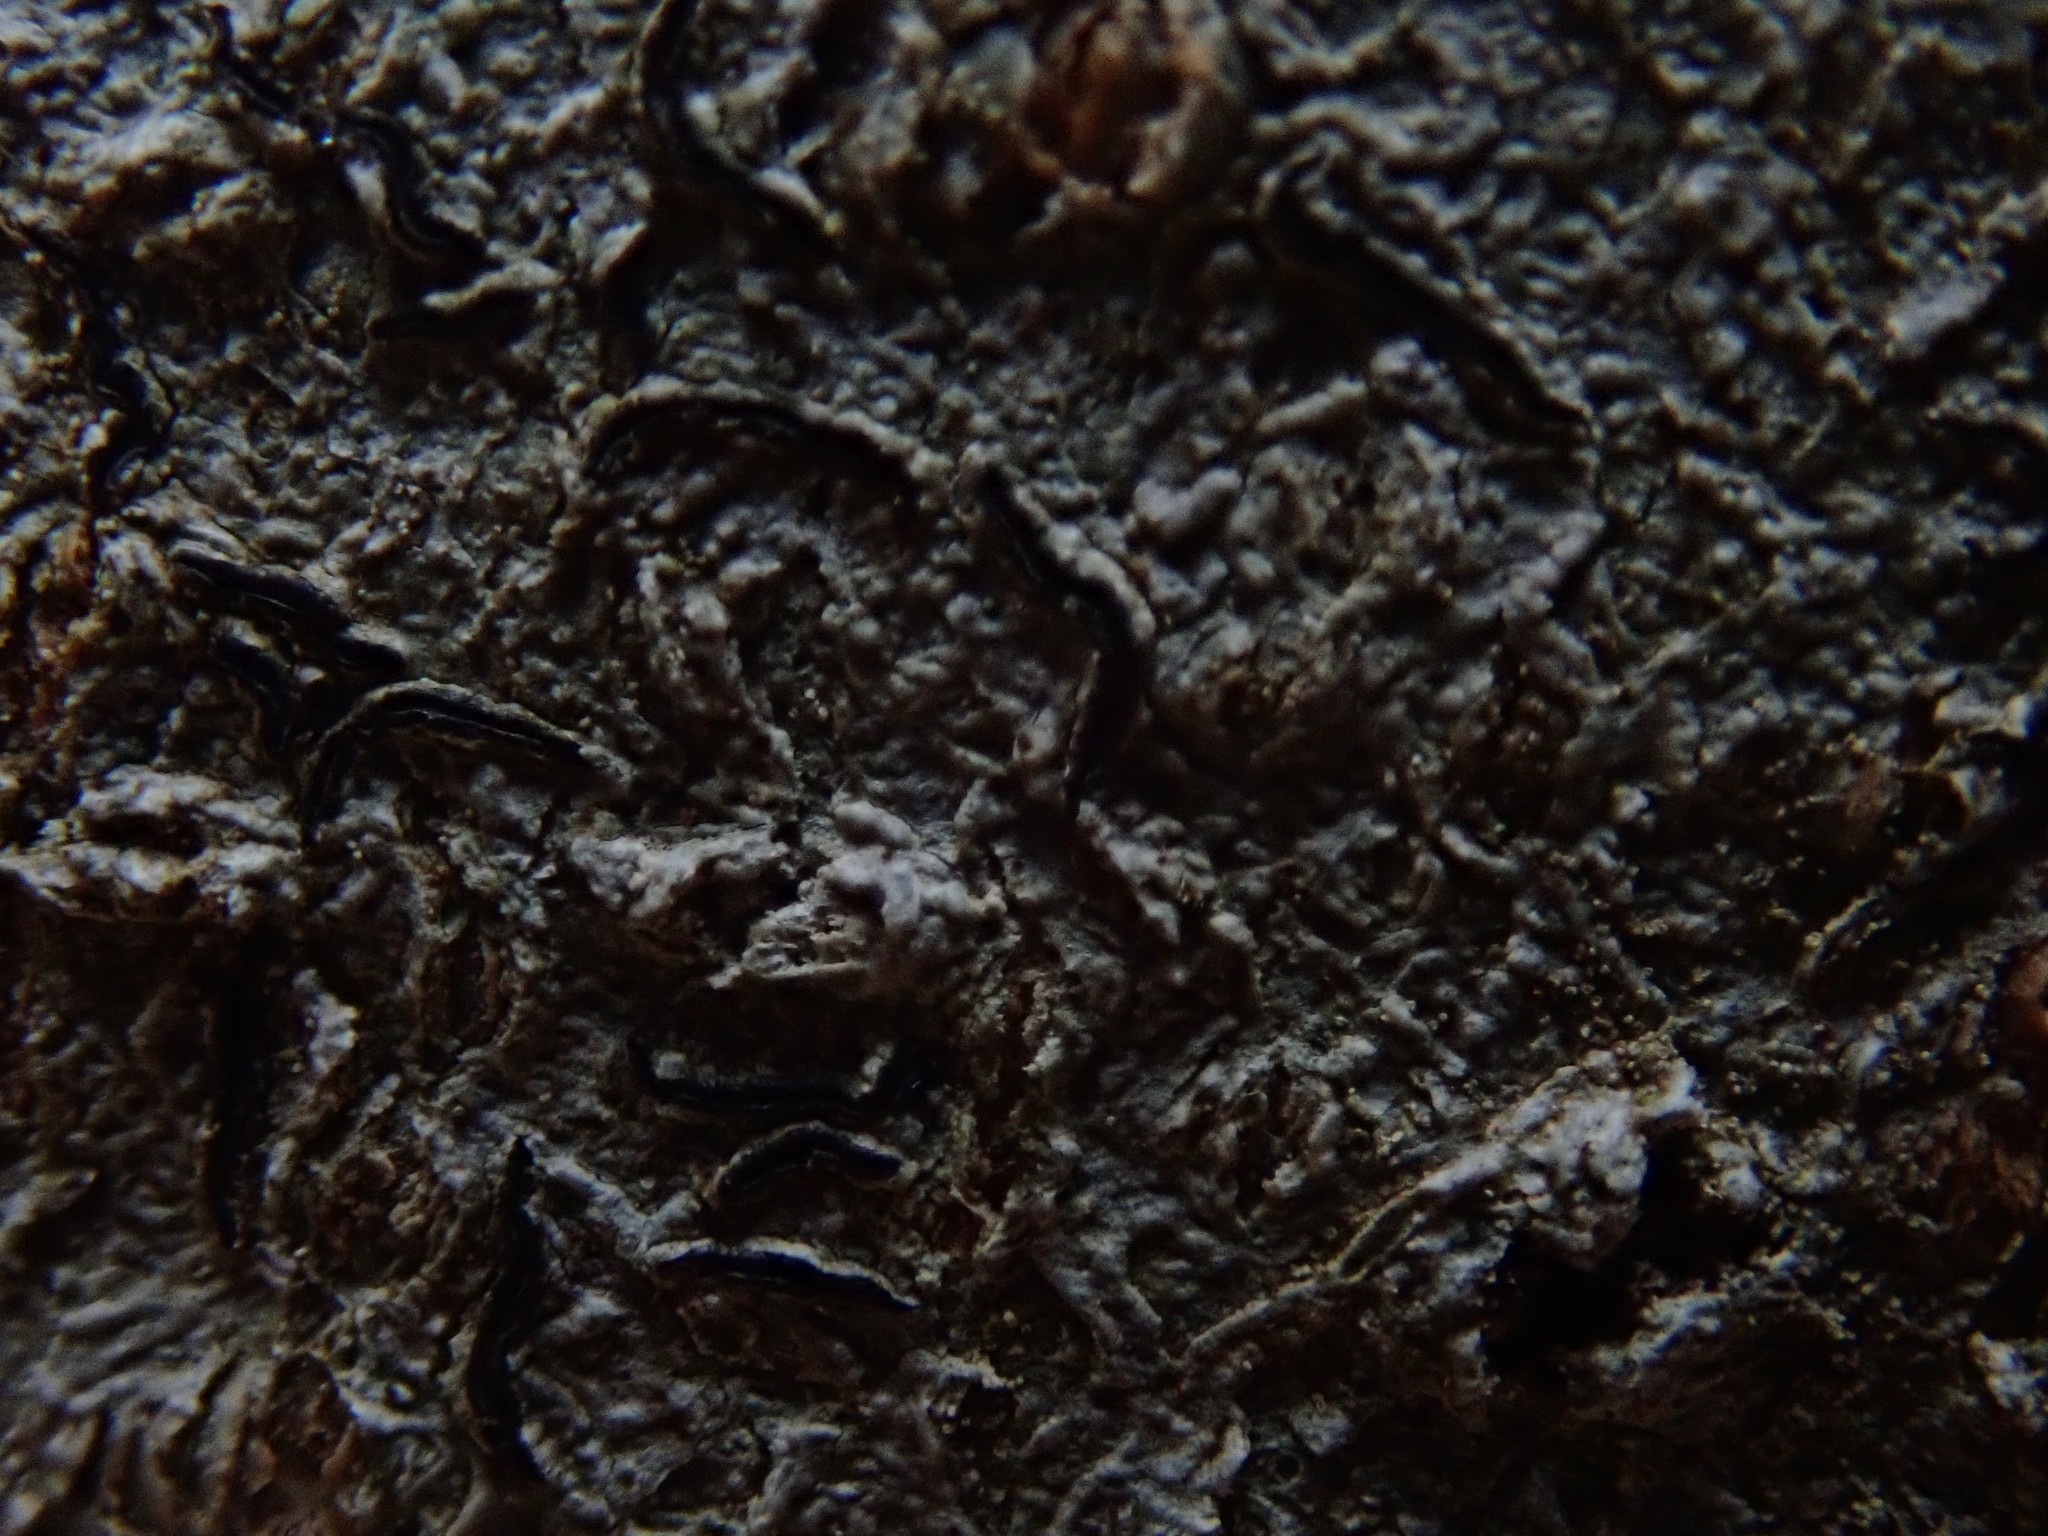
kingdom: Fungi
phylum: Ascomycota
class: Lecanoromycetes
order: Ostropales
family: Graphidaceae
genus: Graphis
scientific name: Graphis scripta
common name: Script lichen
